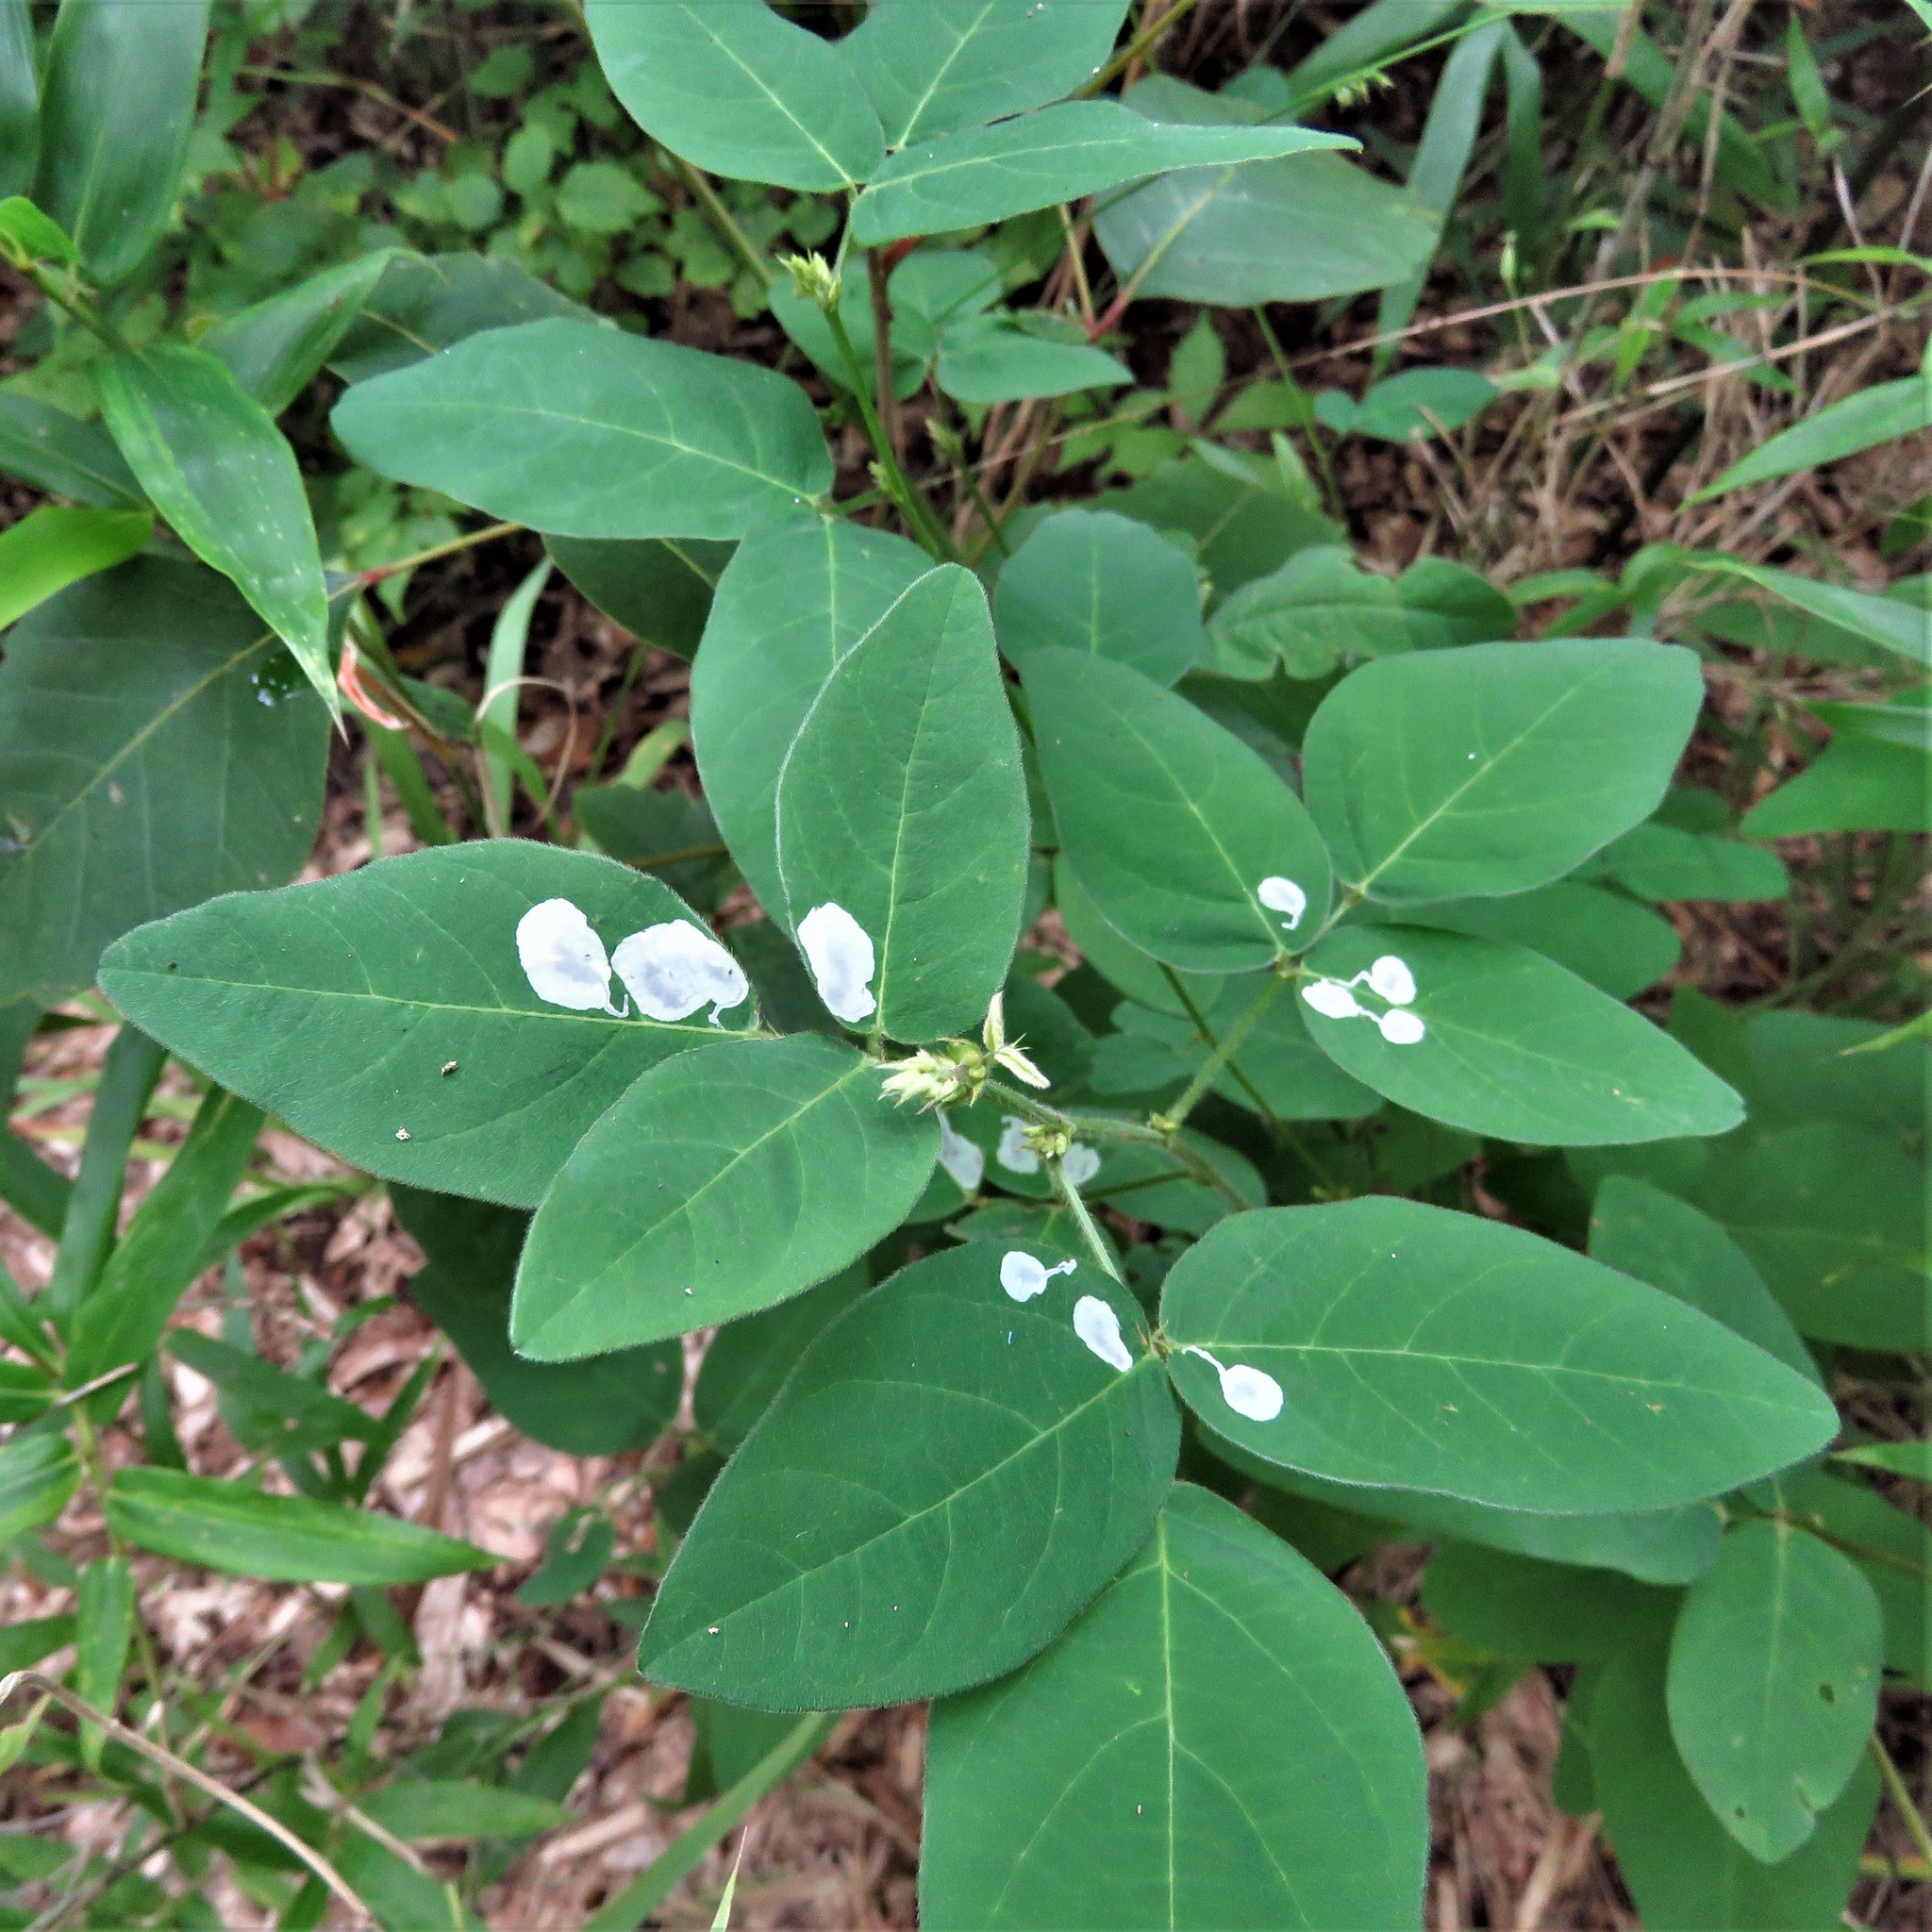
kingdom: Plantae
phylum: Tracheophyta
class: Magnoliopsida
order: Fabales
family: Fabaceae
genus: Desmodium
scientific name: Desmodium viridiflorum
